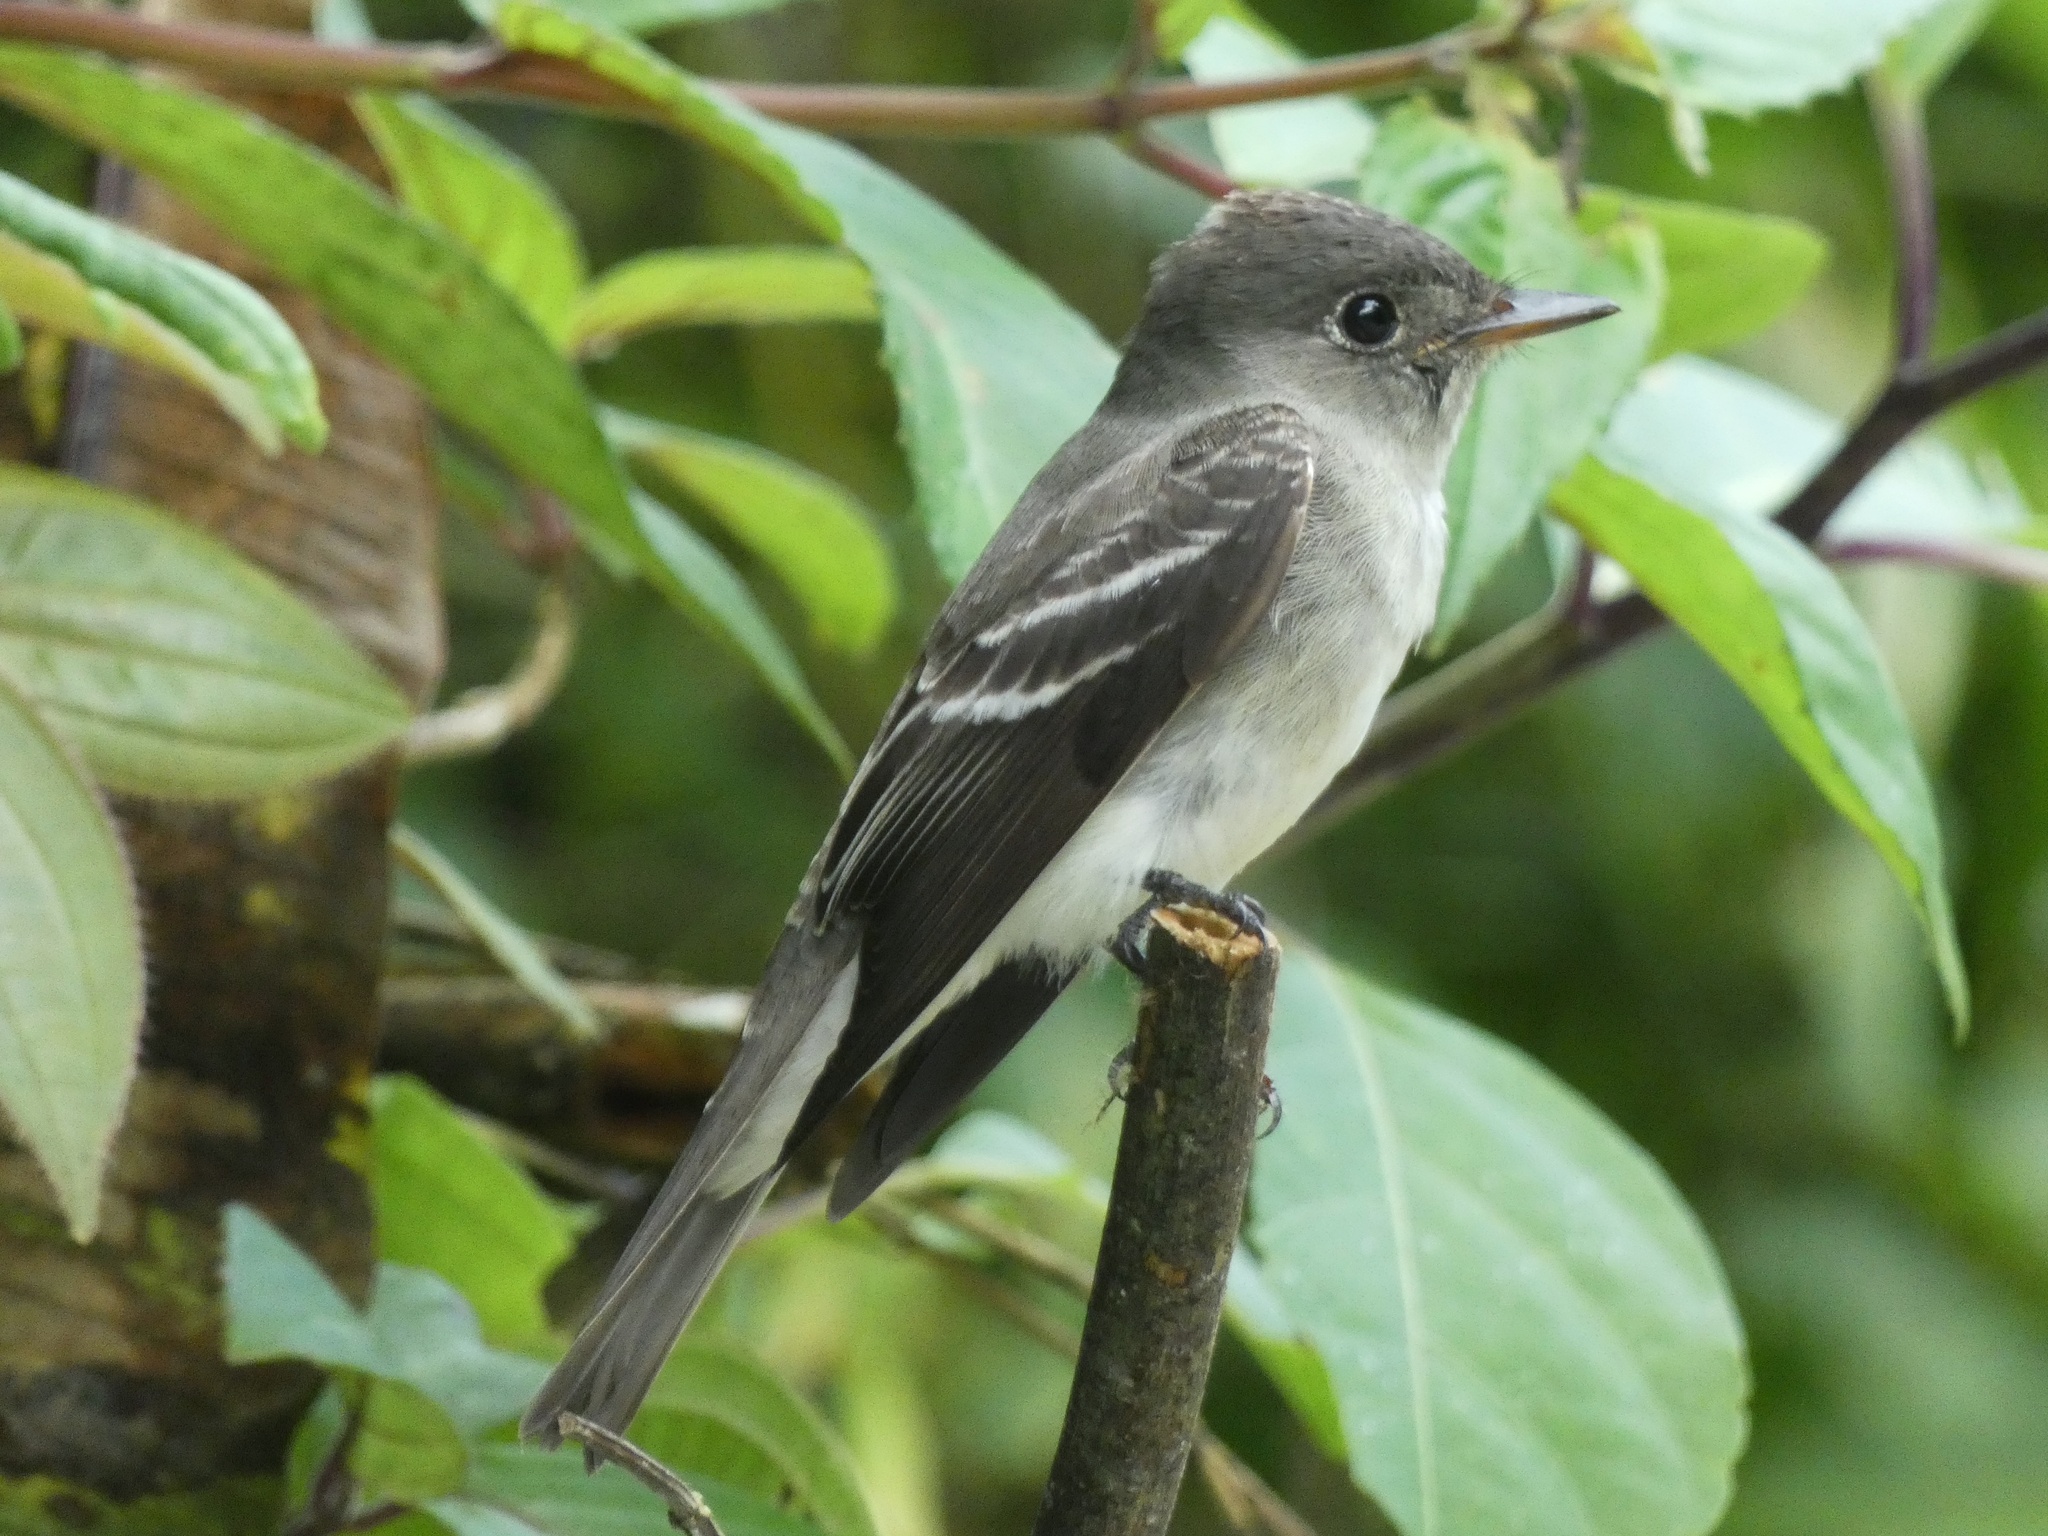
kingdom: Animalia
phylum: Chordata
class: Aves
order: Passeriformes
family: Tyrannidae
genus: Contopus
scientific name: Contopus virens
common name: Eastern wood-pewee
